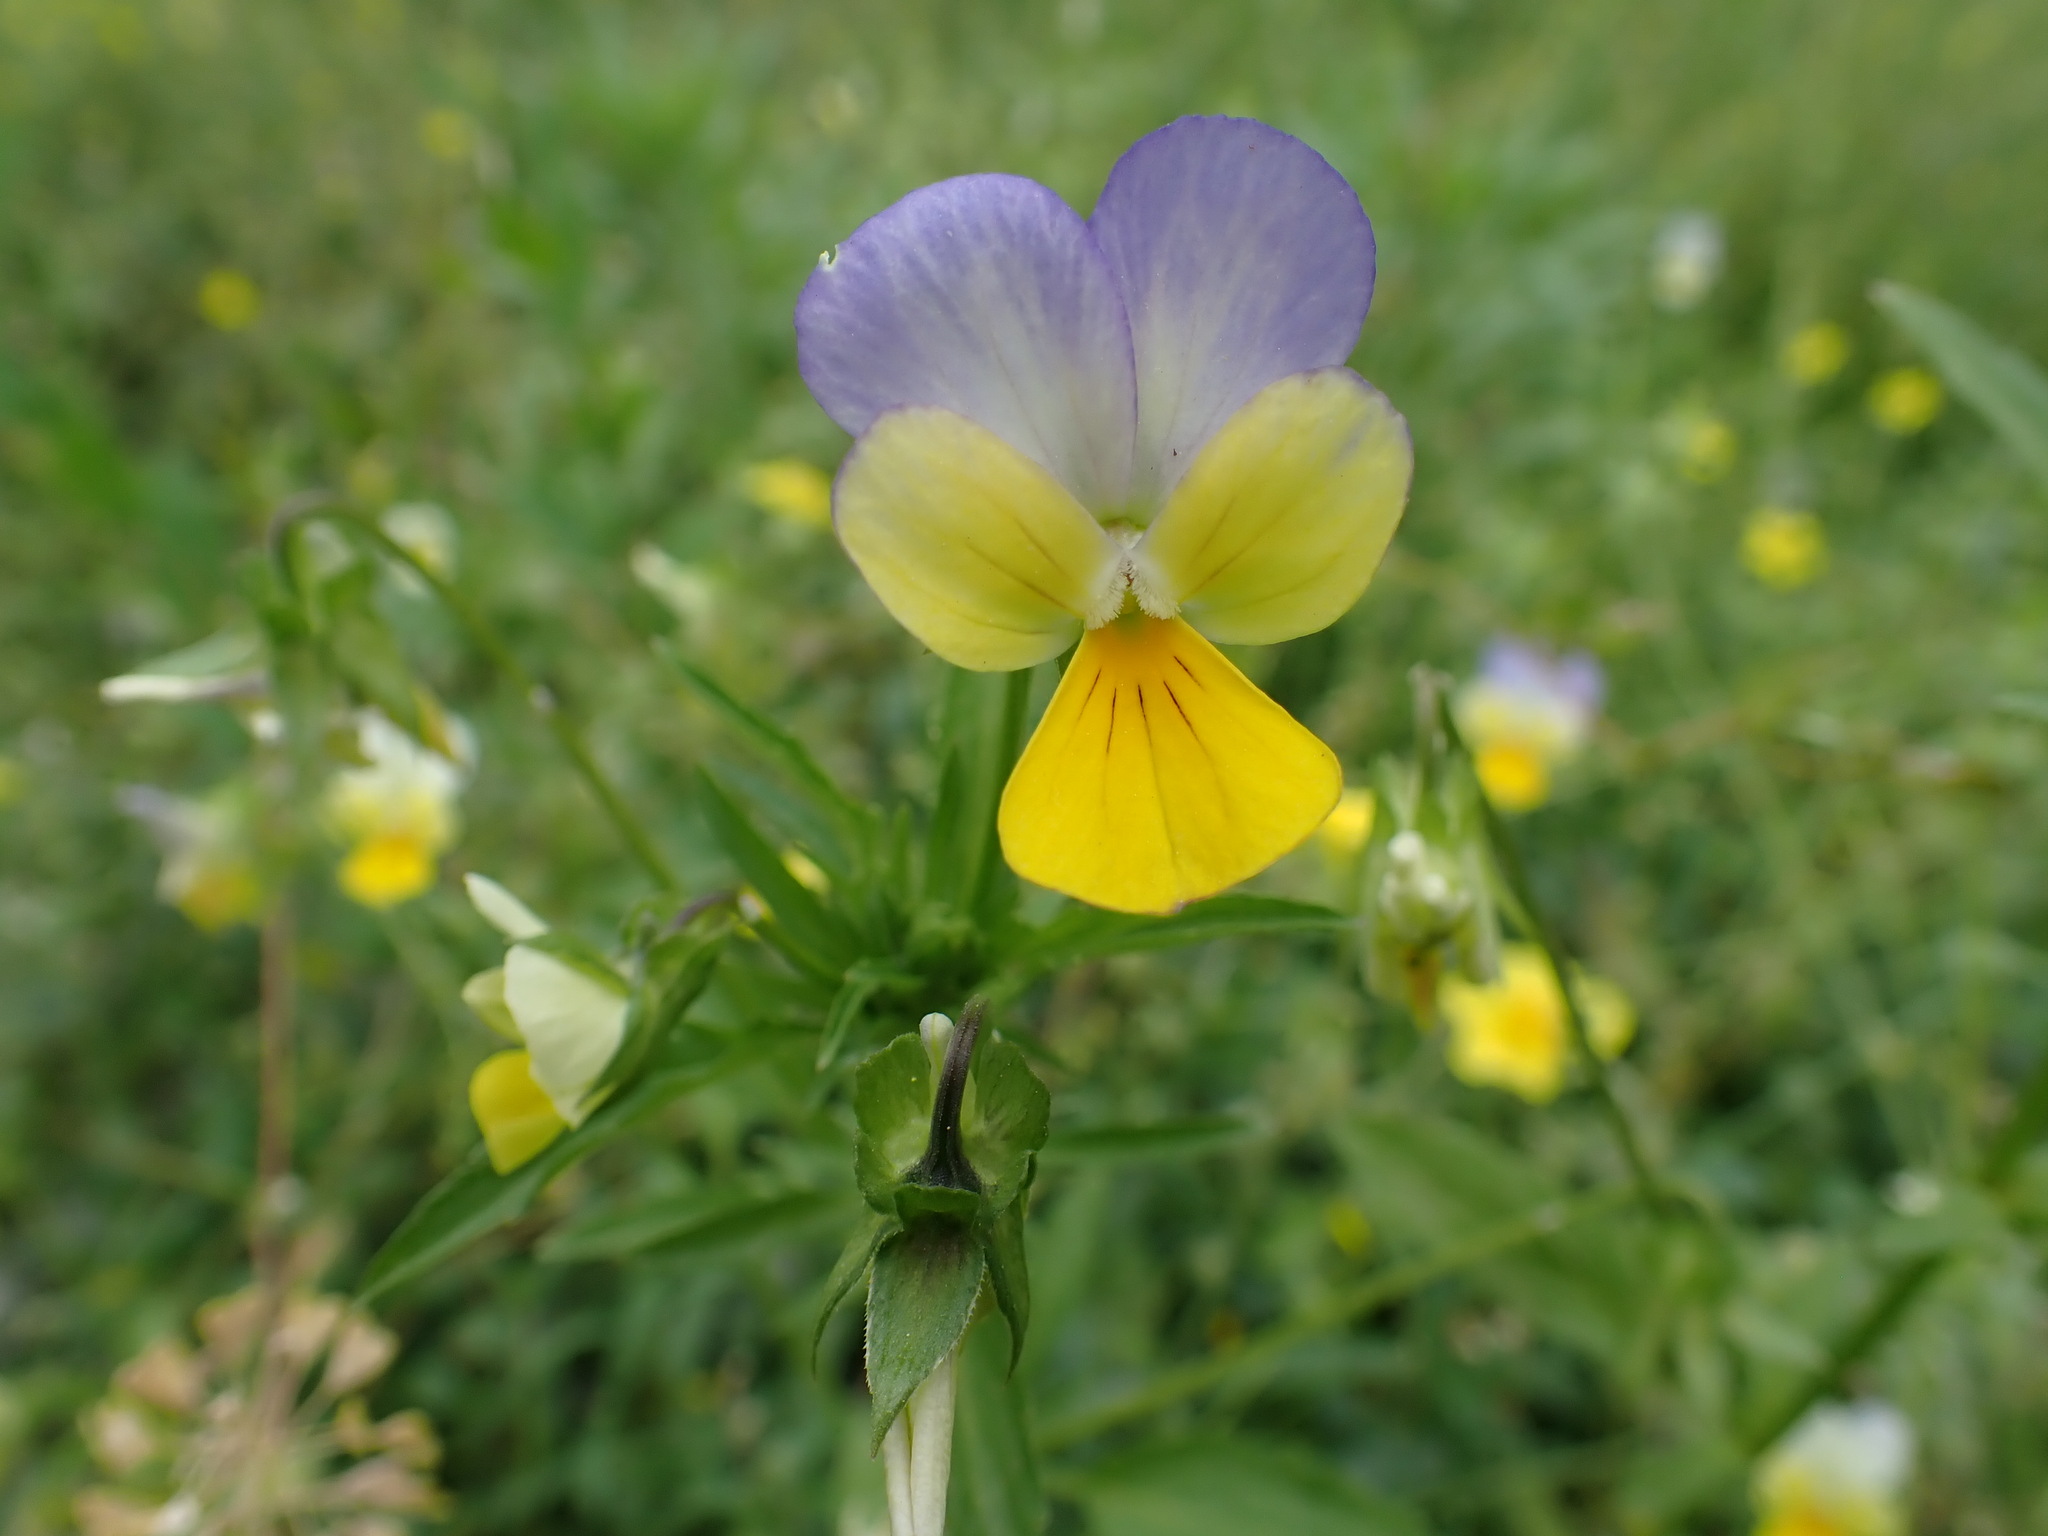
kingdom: Plantae
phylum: Tracheophyta
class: Magnoliopsida
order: Malpighiales
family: Violaceae
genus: Viola
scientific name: Viola tricolor
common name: Pansy
